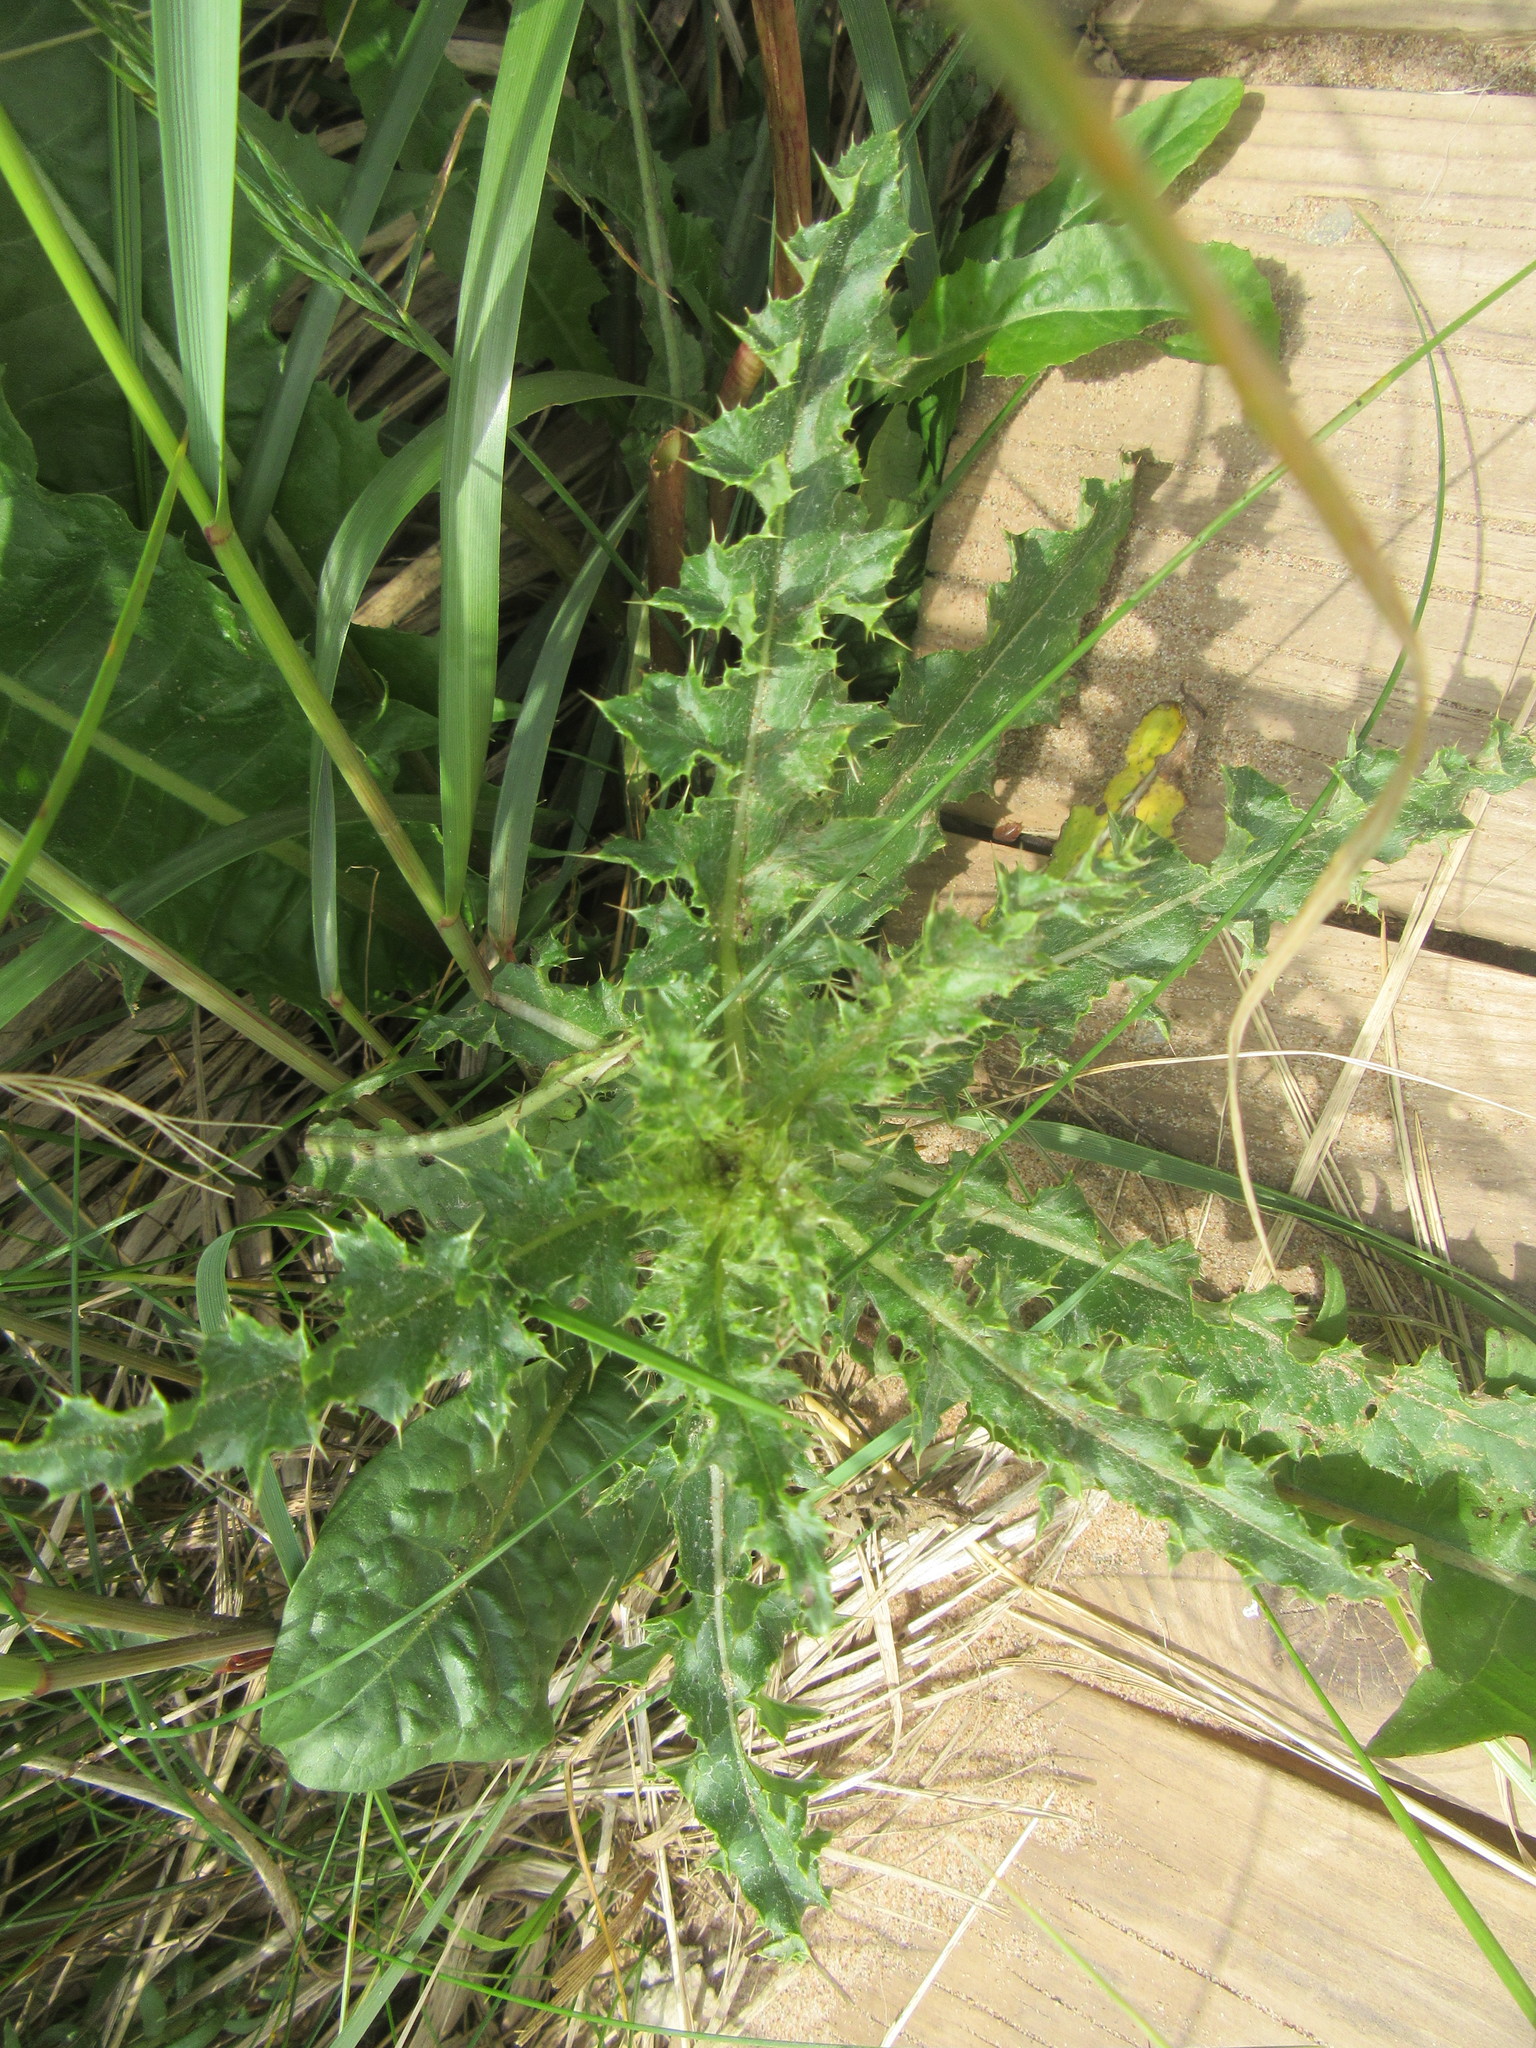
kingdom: Plantae
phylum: Tracheophyta
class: Magnoliopsida
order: Asterales
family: Asteraceae
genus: Cirsium
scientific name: Cirsium arvense
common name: Creeping thistle
